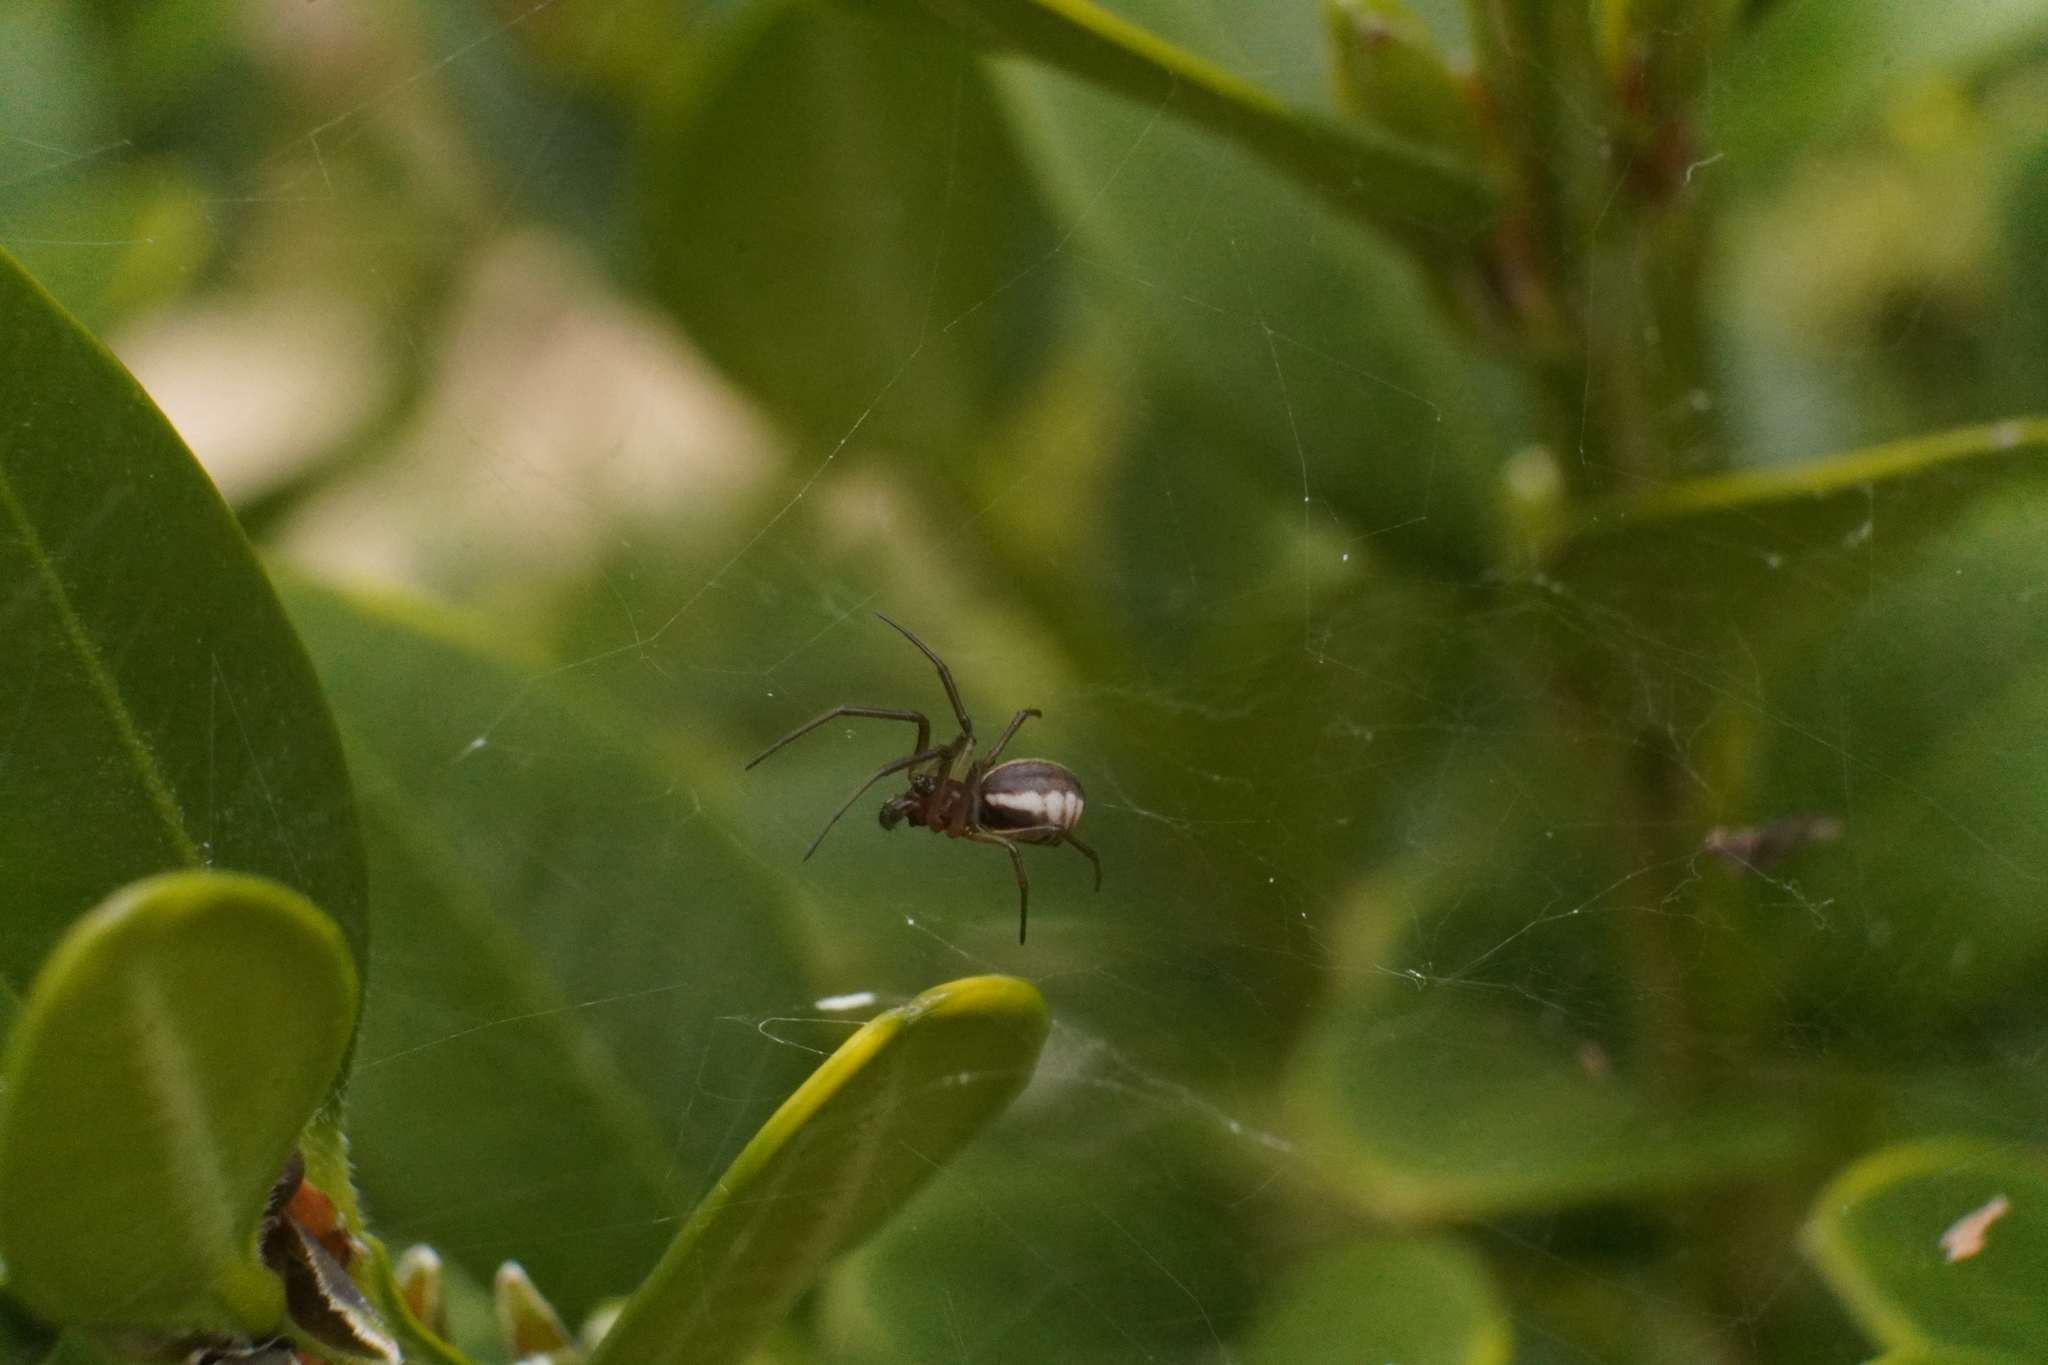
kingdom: Animalia
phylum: Arthropoda
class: Arachnida
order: Araneae
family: Linyphiidae
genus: Frontinella
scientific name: Frontinella pyramitela
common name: Bowl-and-doily spider
